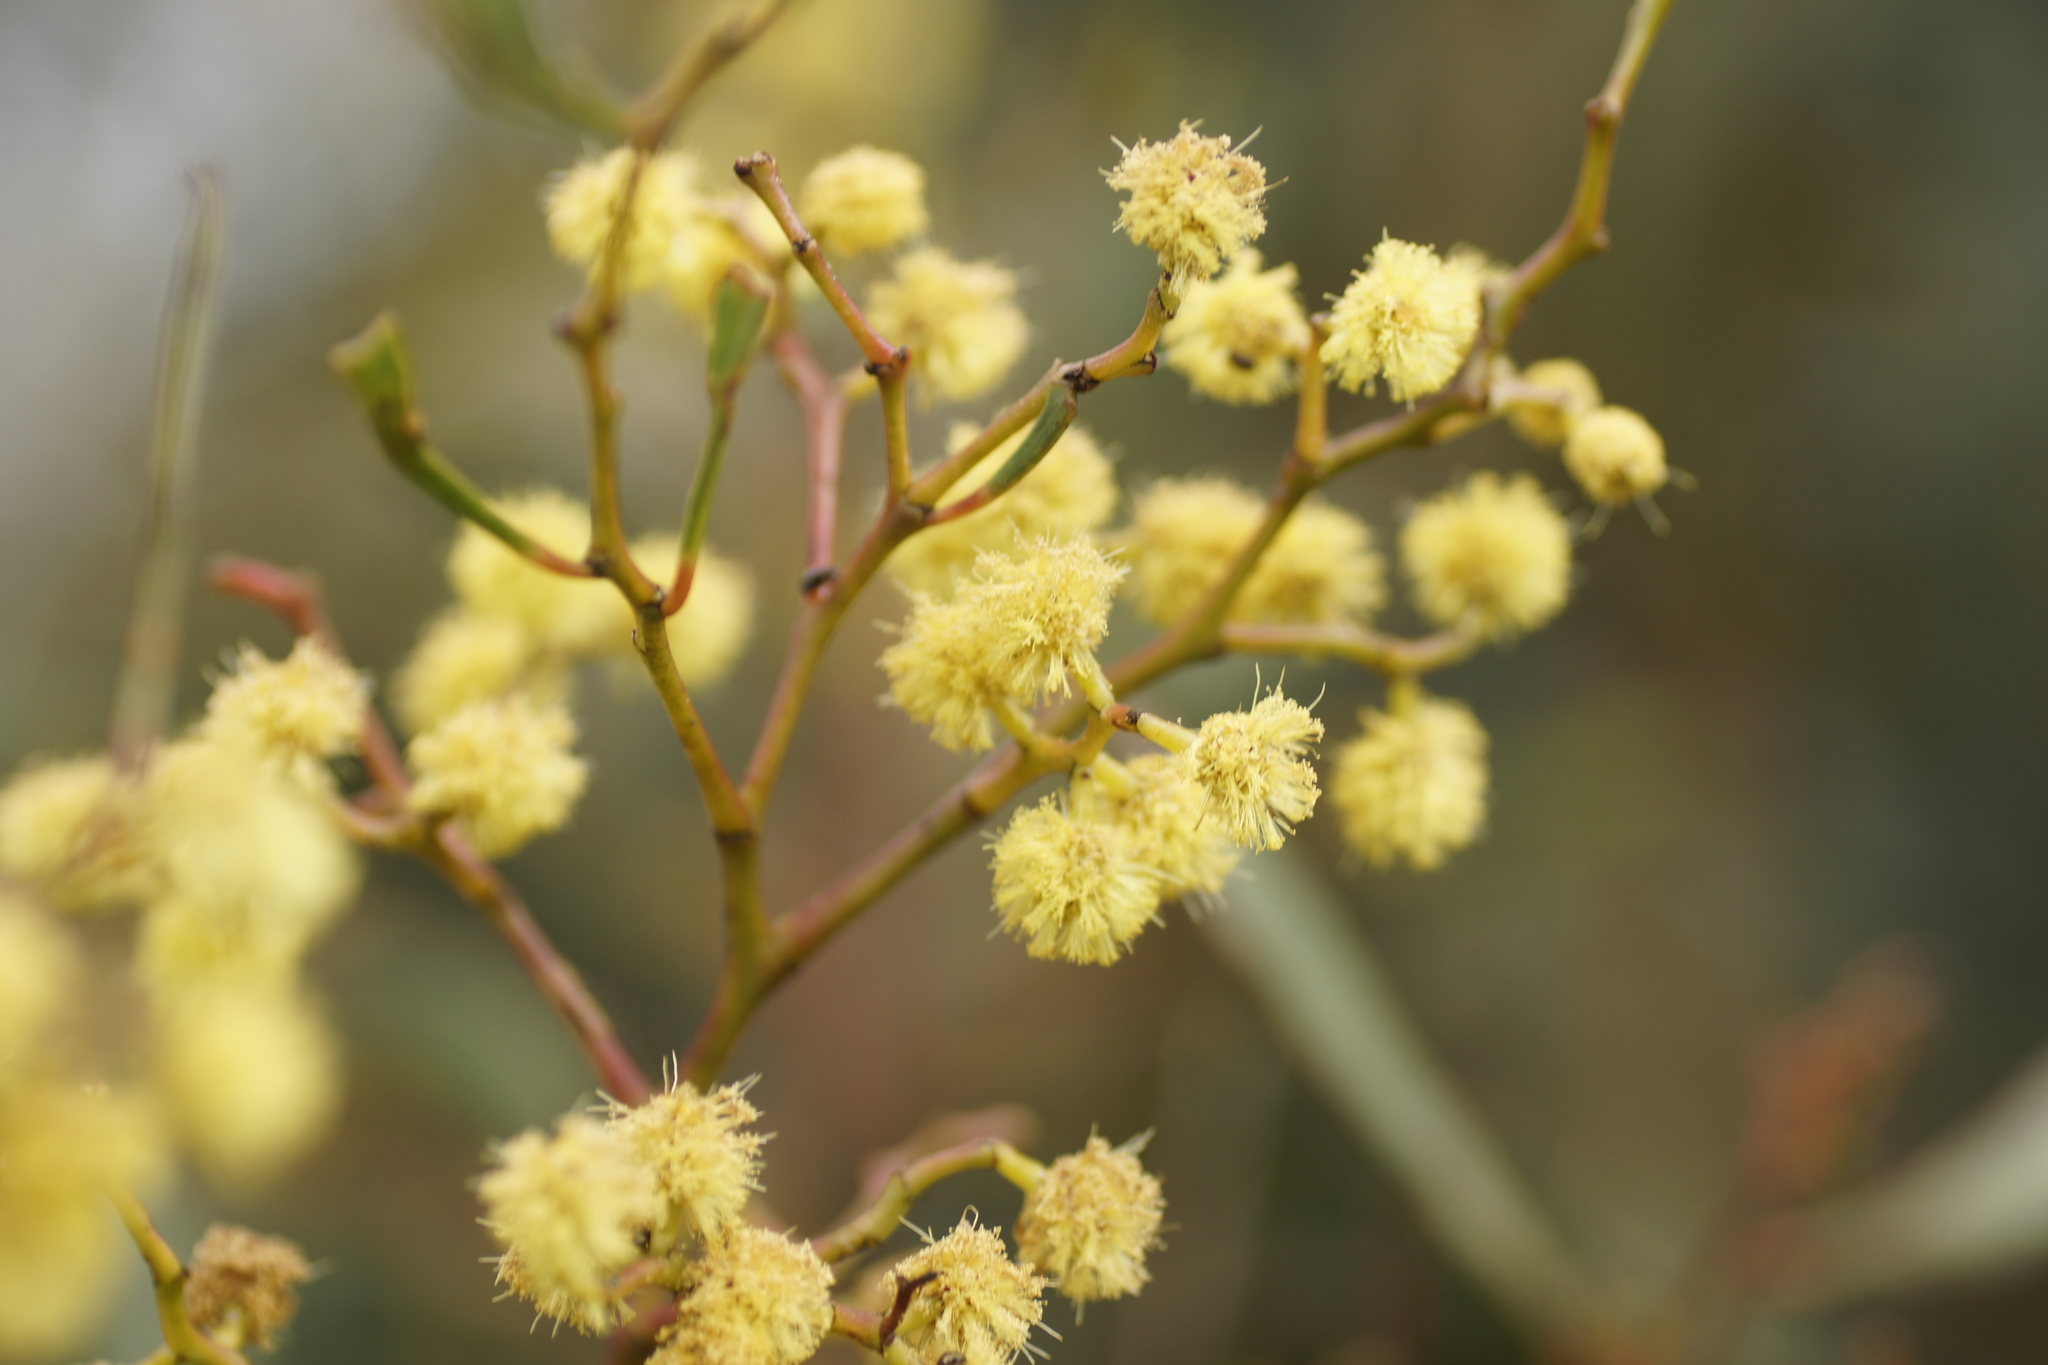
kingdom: Plantae
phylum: Tracheophyta
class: Magnoliopsida
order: Fabales
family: Fabaceae
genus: Acacia
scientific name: Acacia pycnantha
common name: Golden wattle
